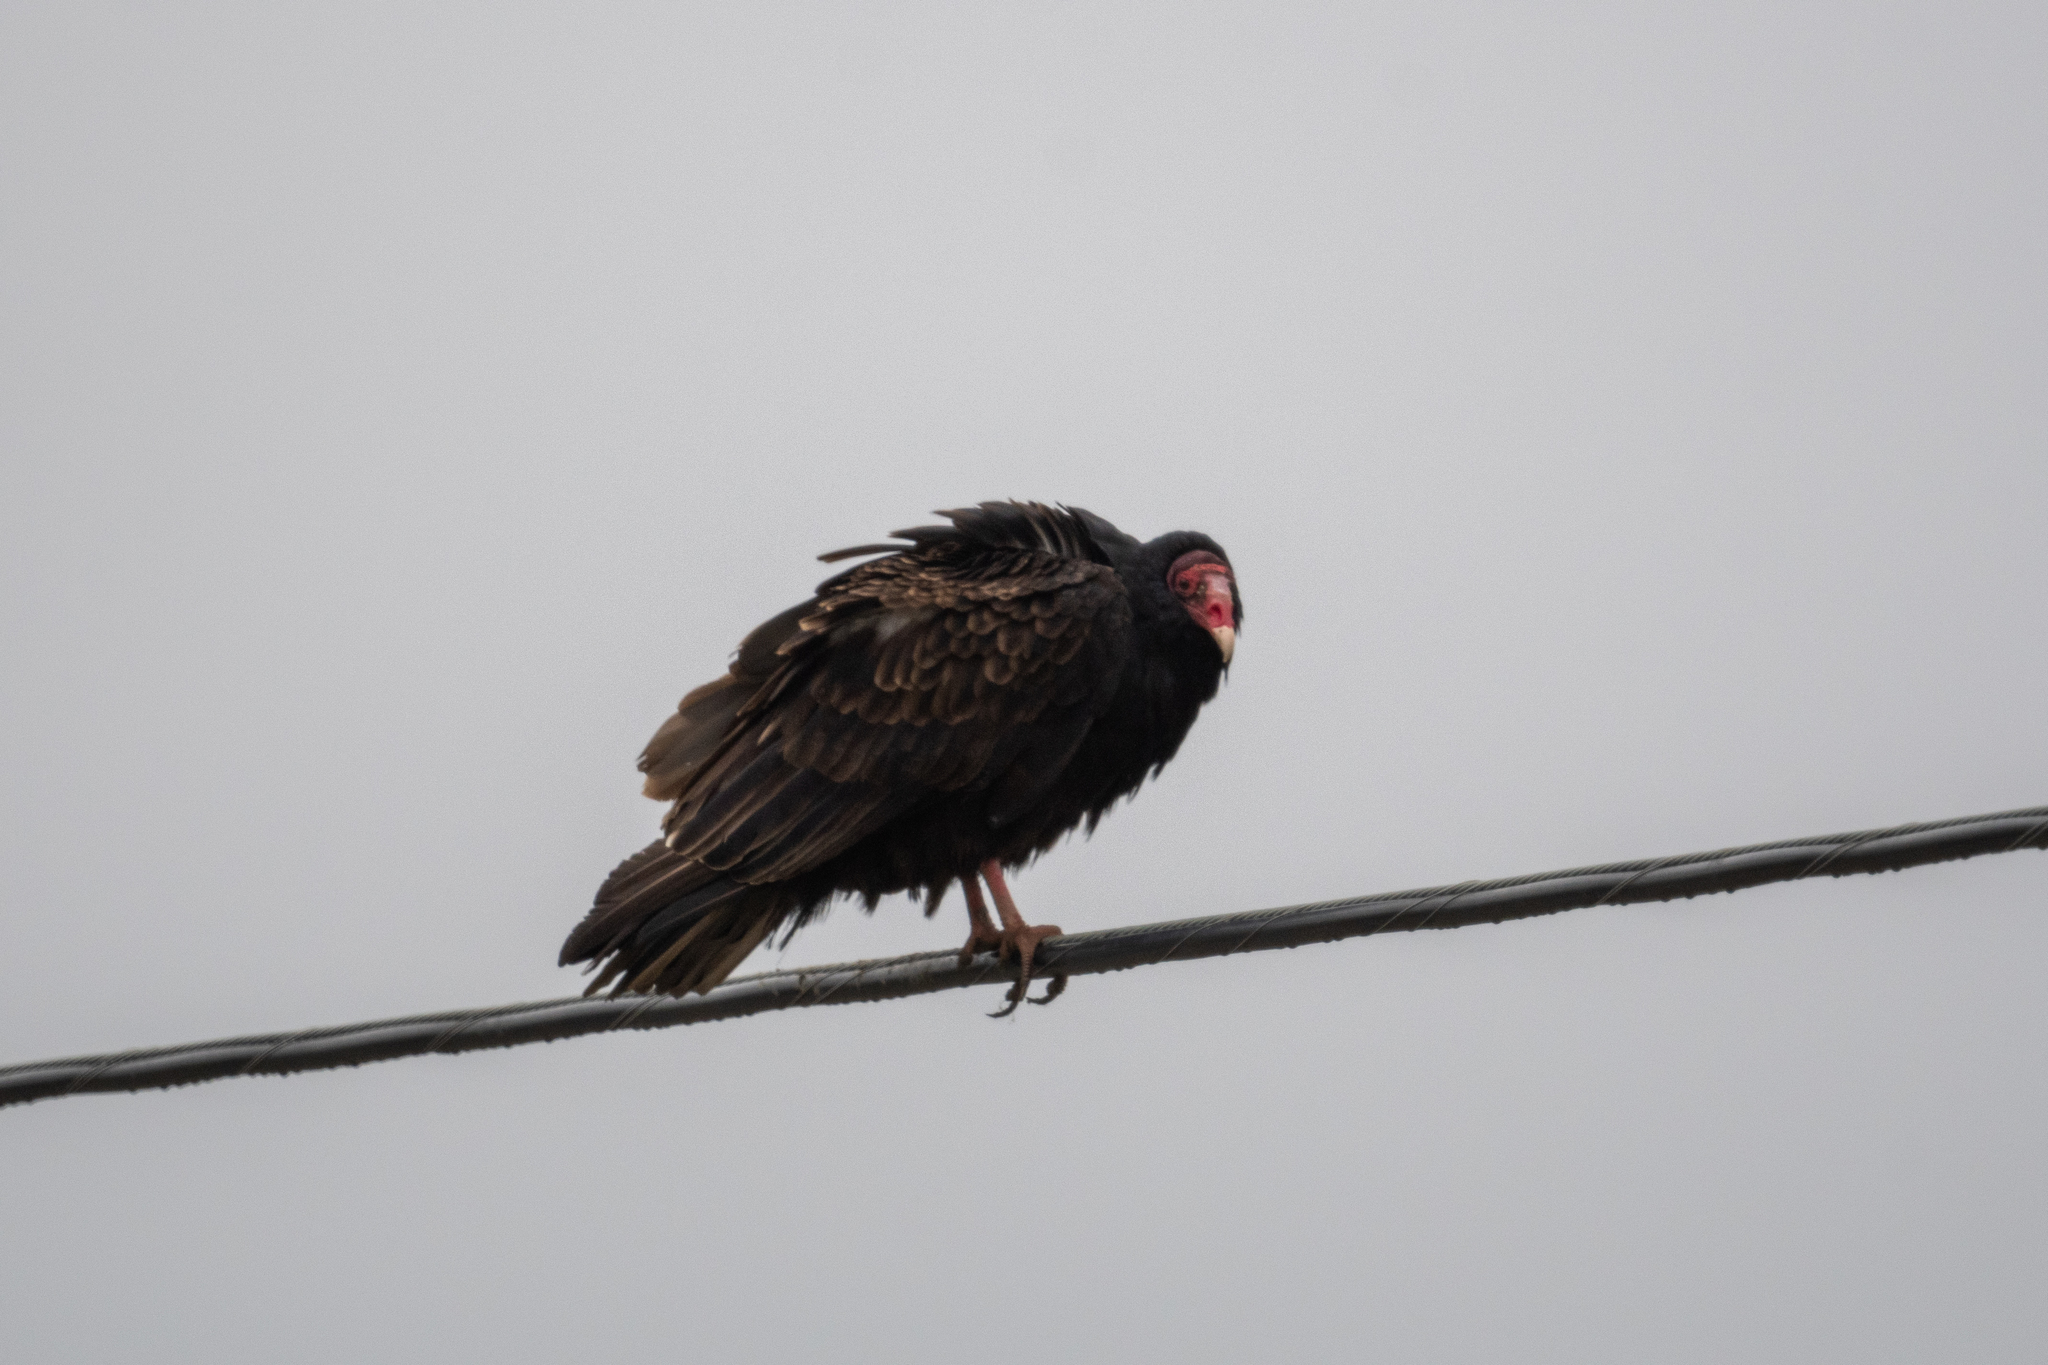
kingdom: Animalia
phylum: Chordata
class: Aves
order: Accipitriformes
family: Cathartidae
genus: Cathartes
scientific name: Cathartes aura
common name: Turkey vulture
